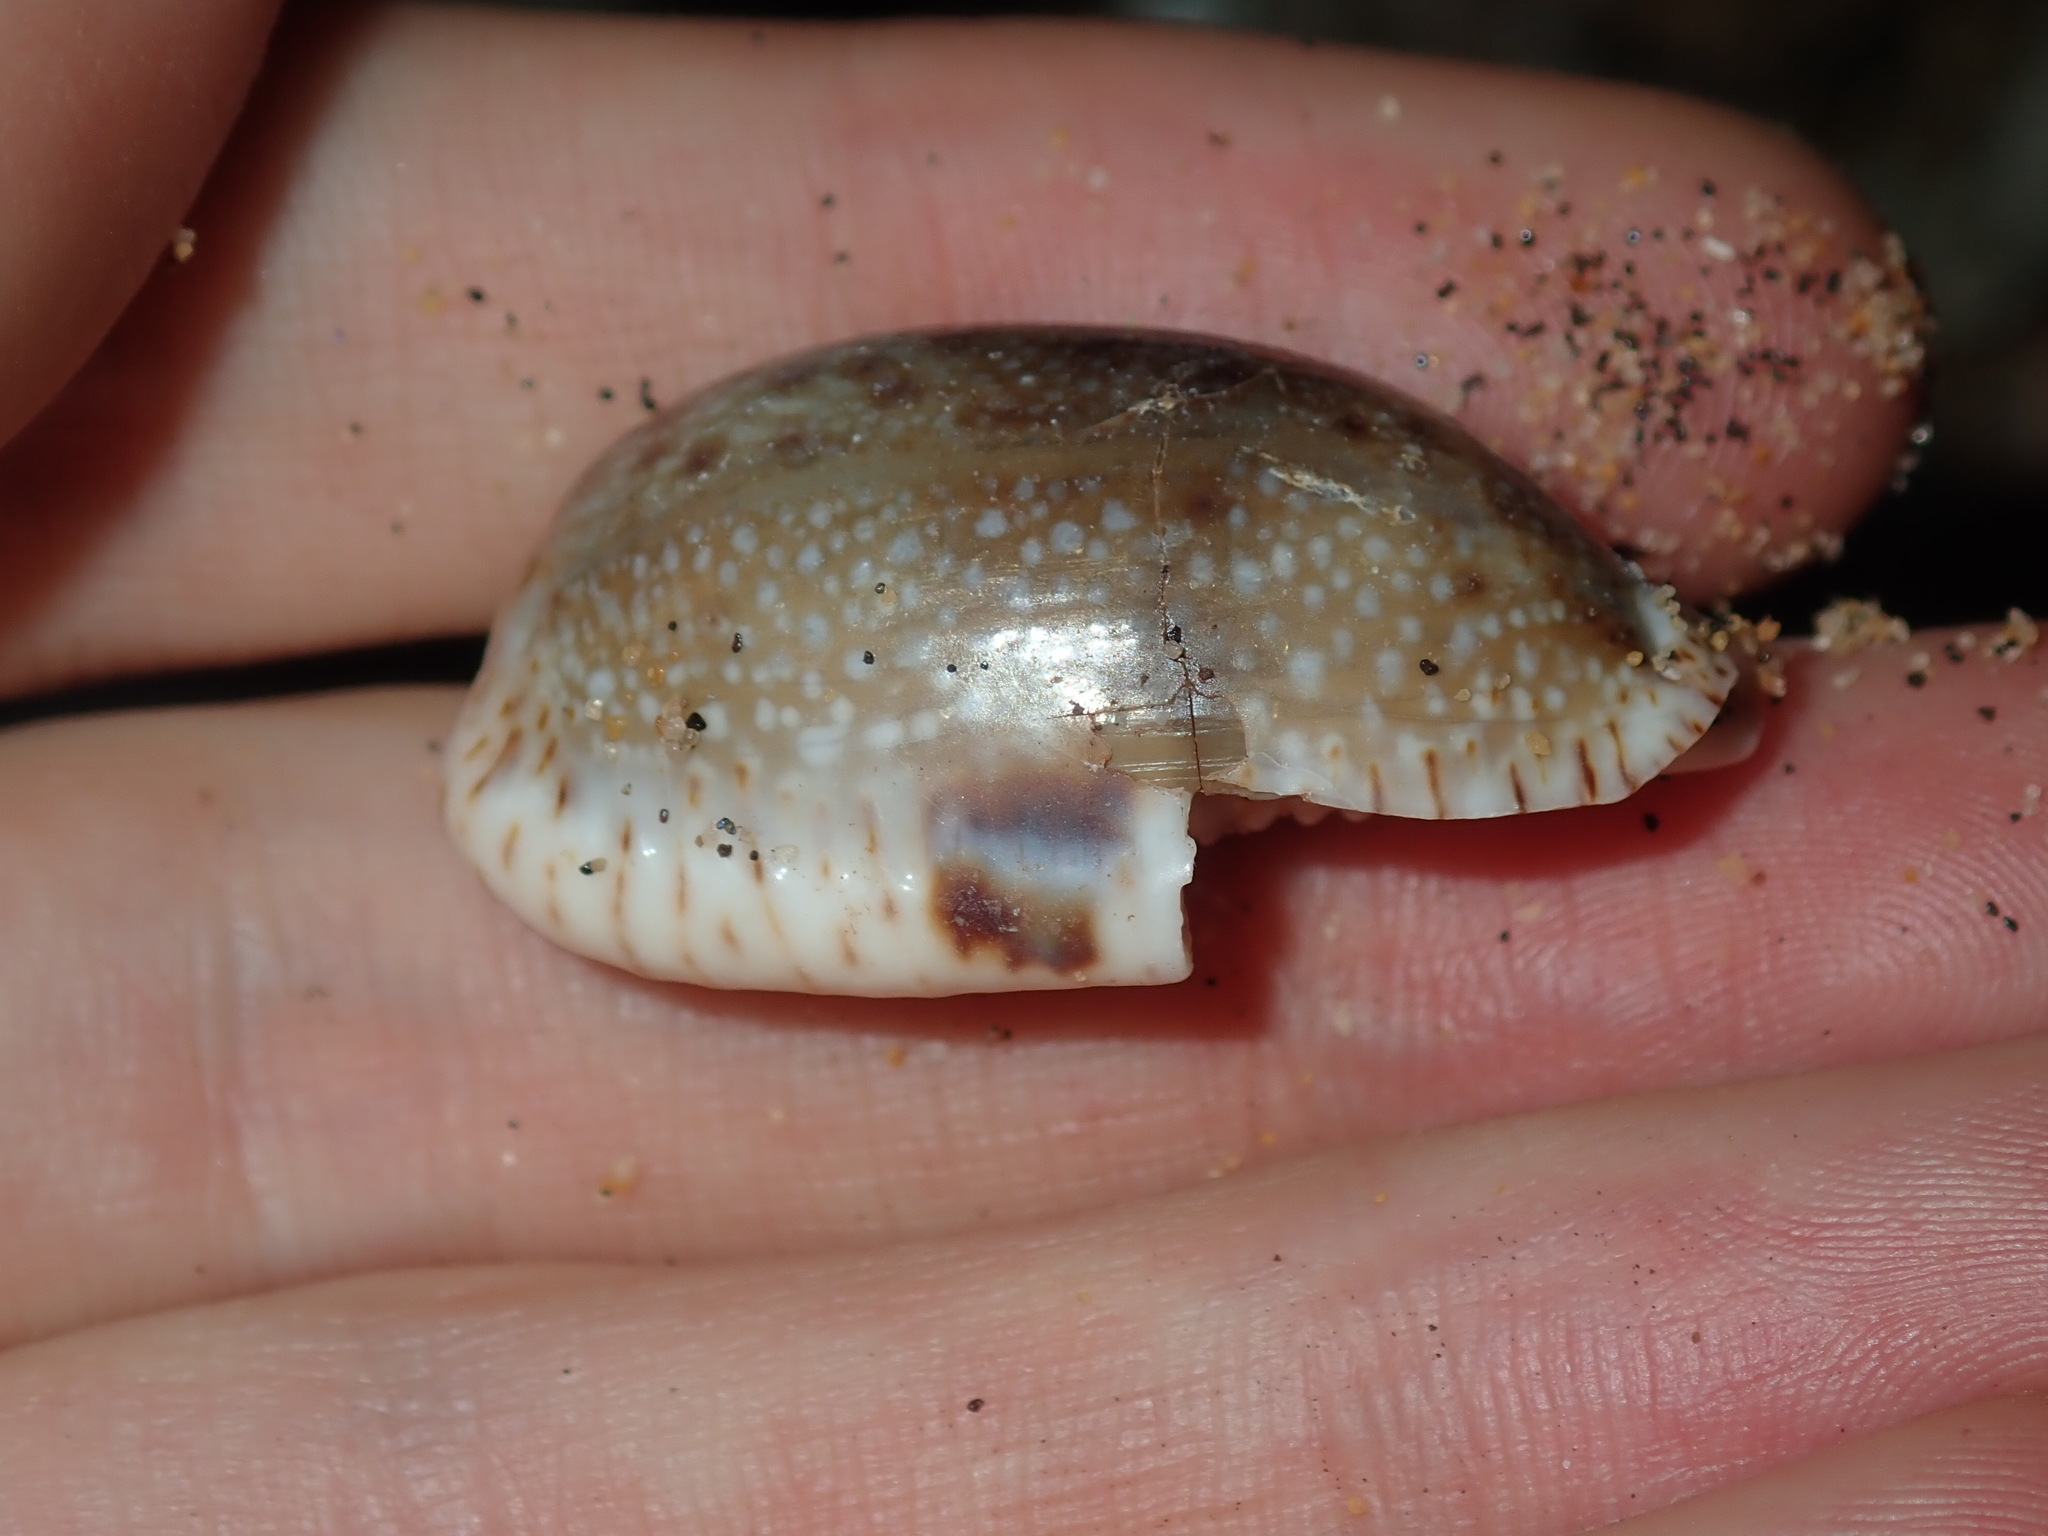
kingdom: Animalia
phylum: Mollusca
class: Gastropoda
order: Littorinimorpha
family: Cypraeidae
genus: Naria
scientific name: Naria erosa
